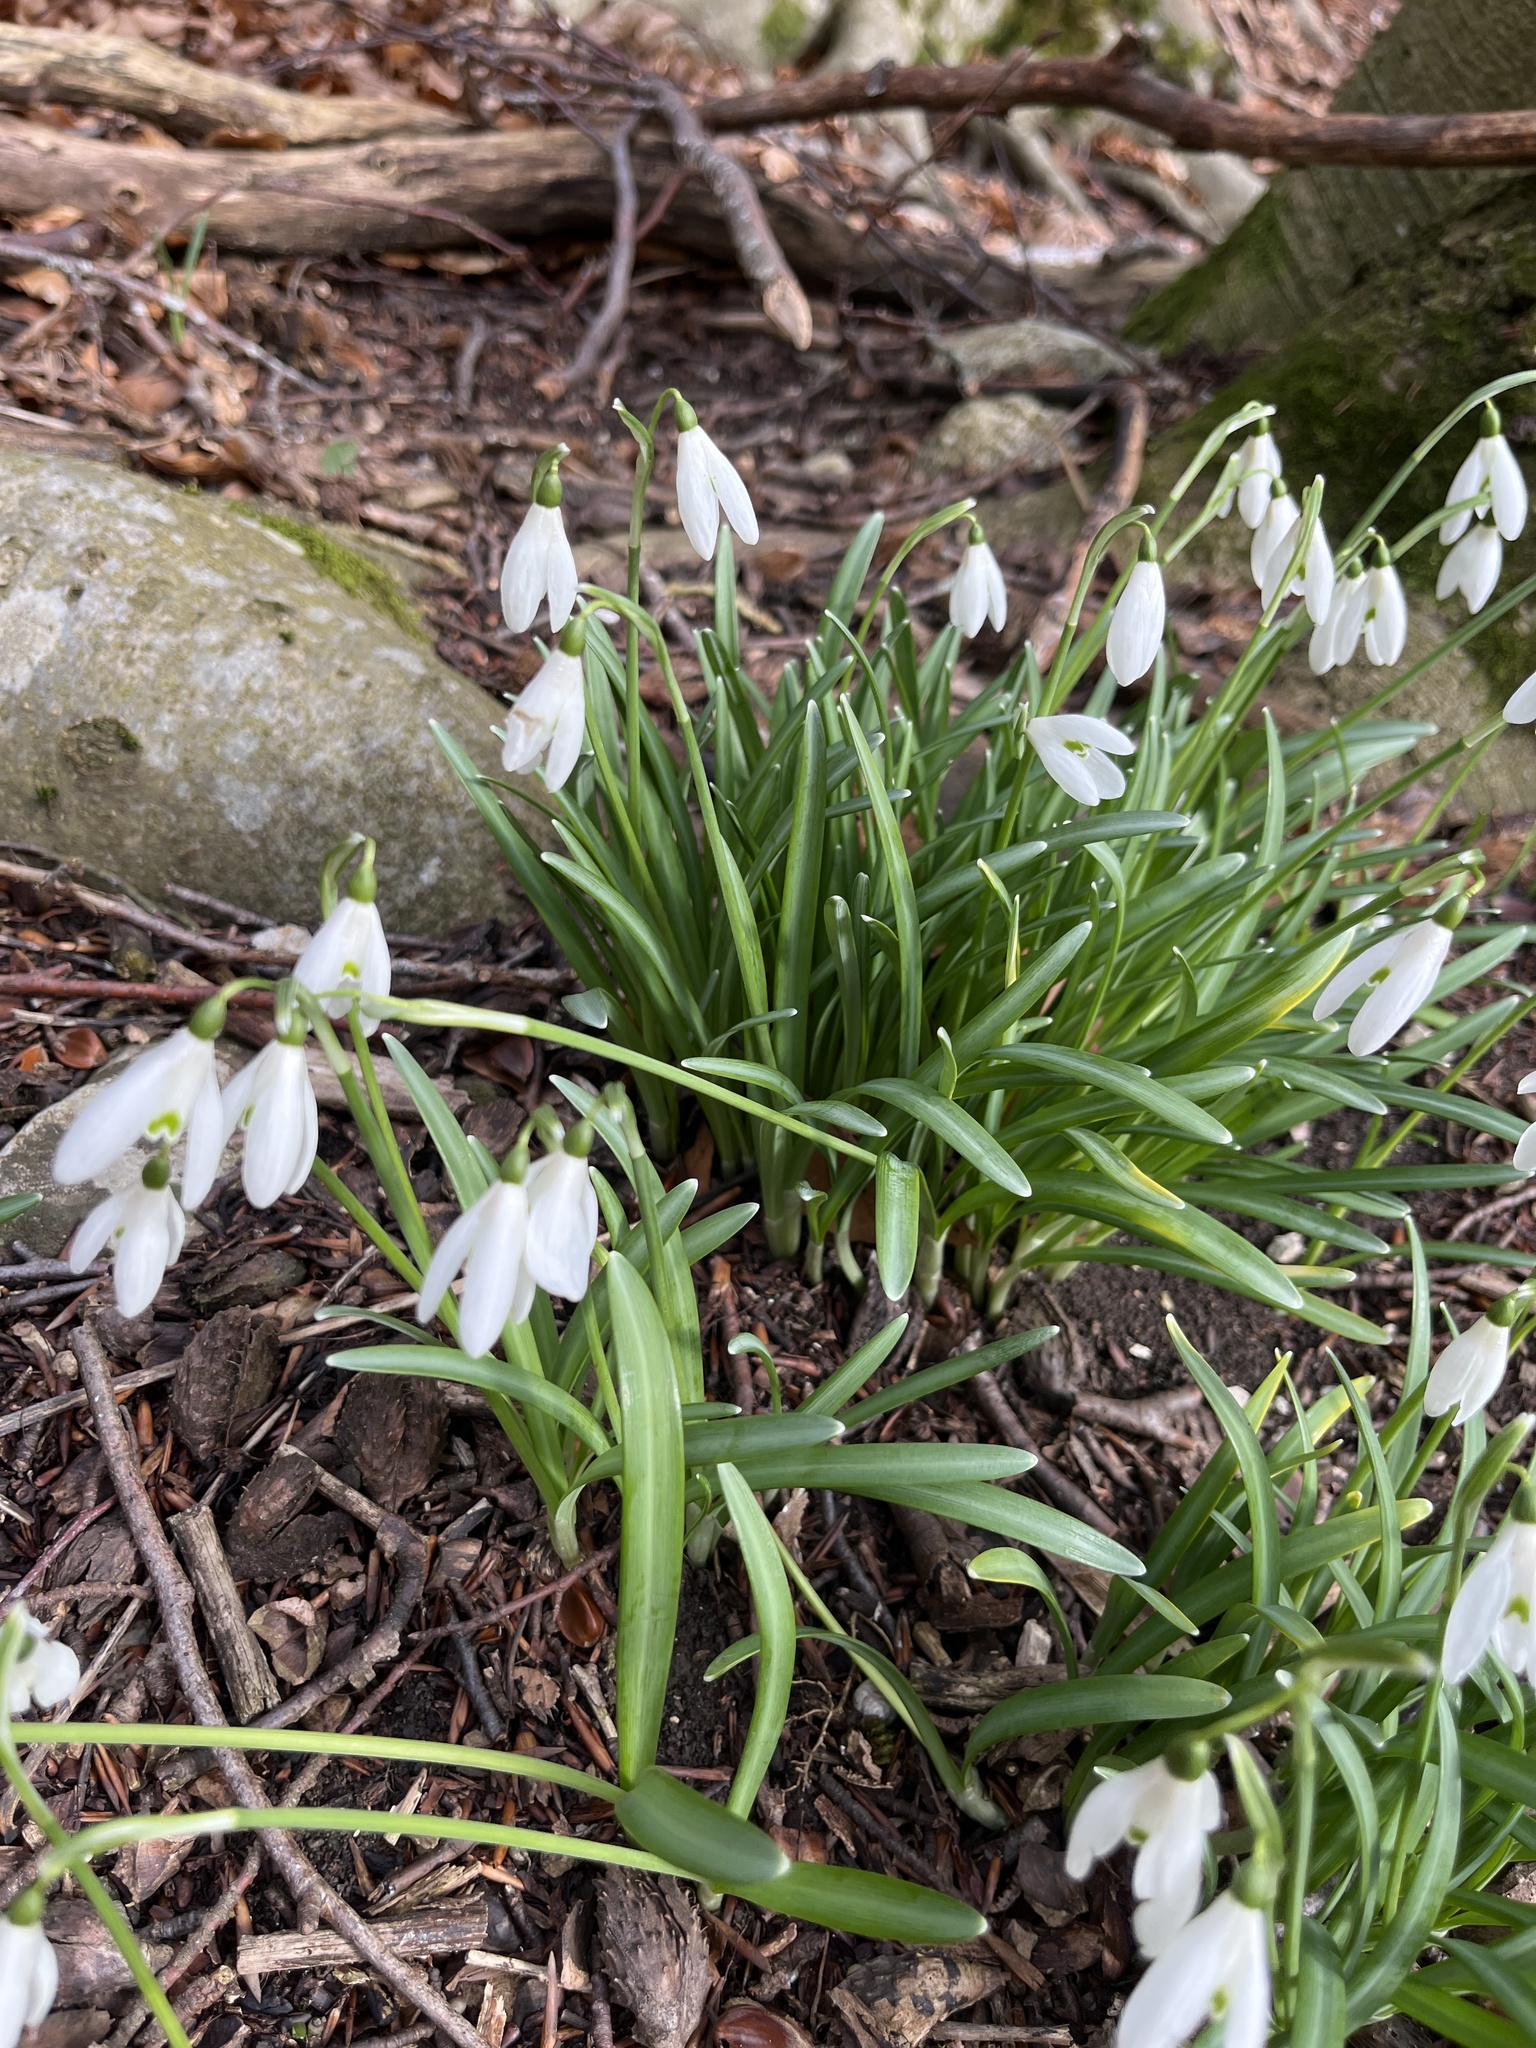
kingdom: Plantae
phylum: Tracheophyta
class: Liliopsida
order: Asparagales
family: Amaryllidaceae
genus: Galanthus
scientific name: Galanthus nivalis
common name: Snowdrop
